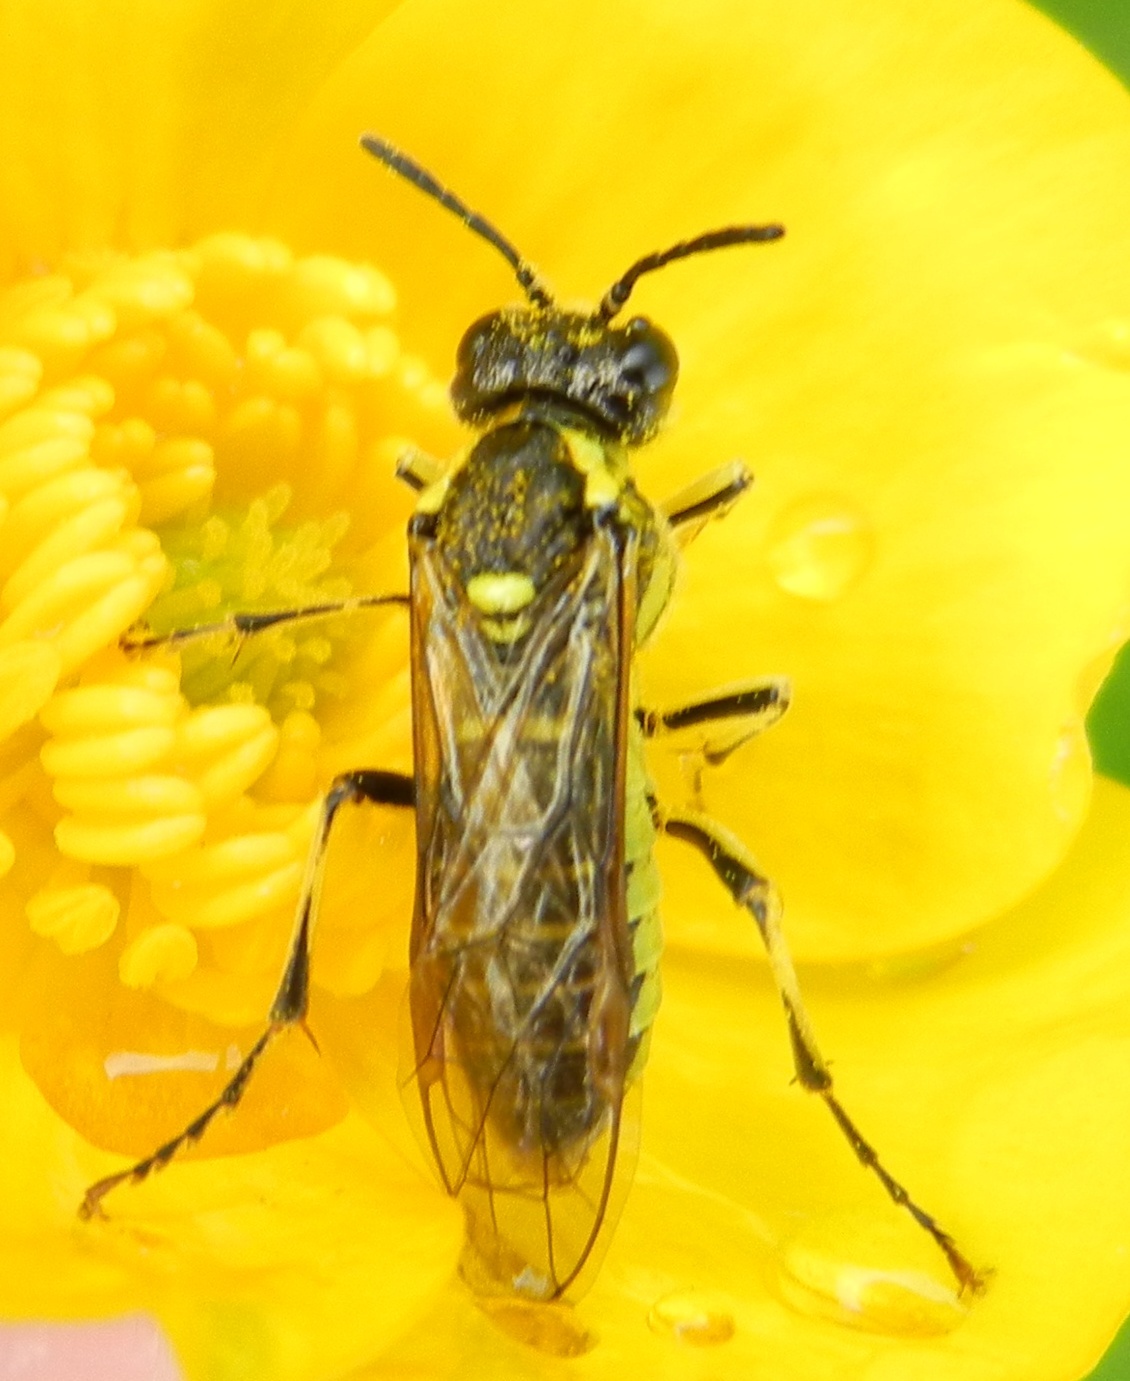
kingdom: Animalia
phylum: Arthropoda
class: Insecta
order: Hymenoptera
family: Tenthredinidae
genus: Tenthredo
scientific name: Tenthredo arcuata
